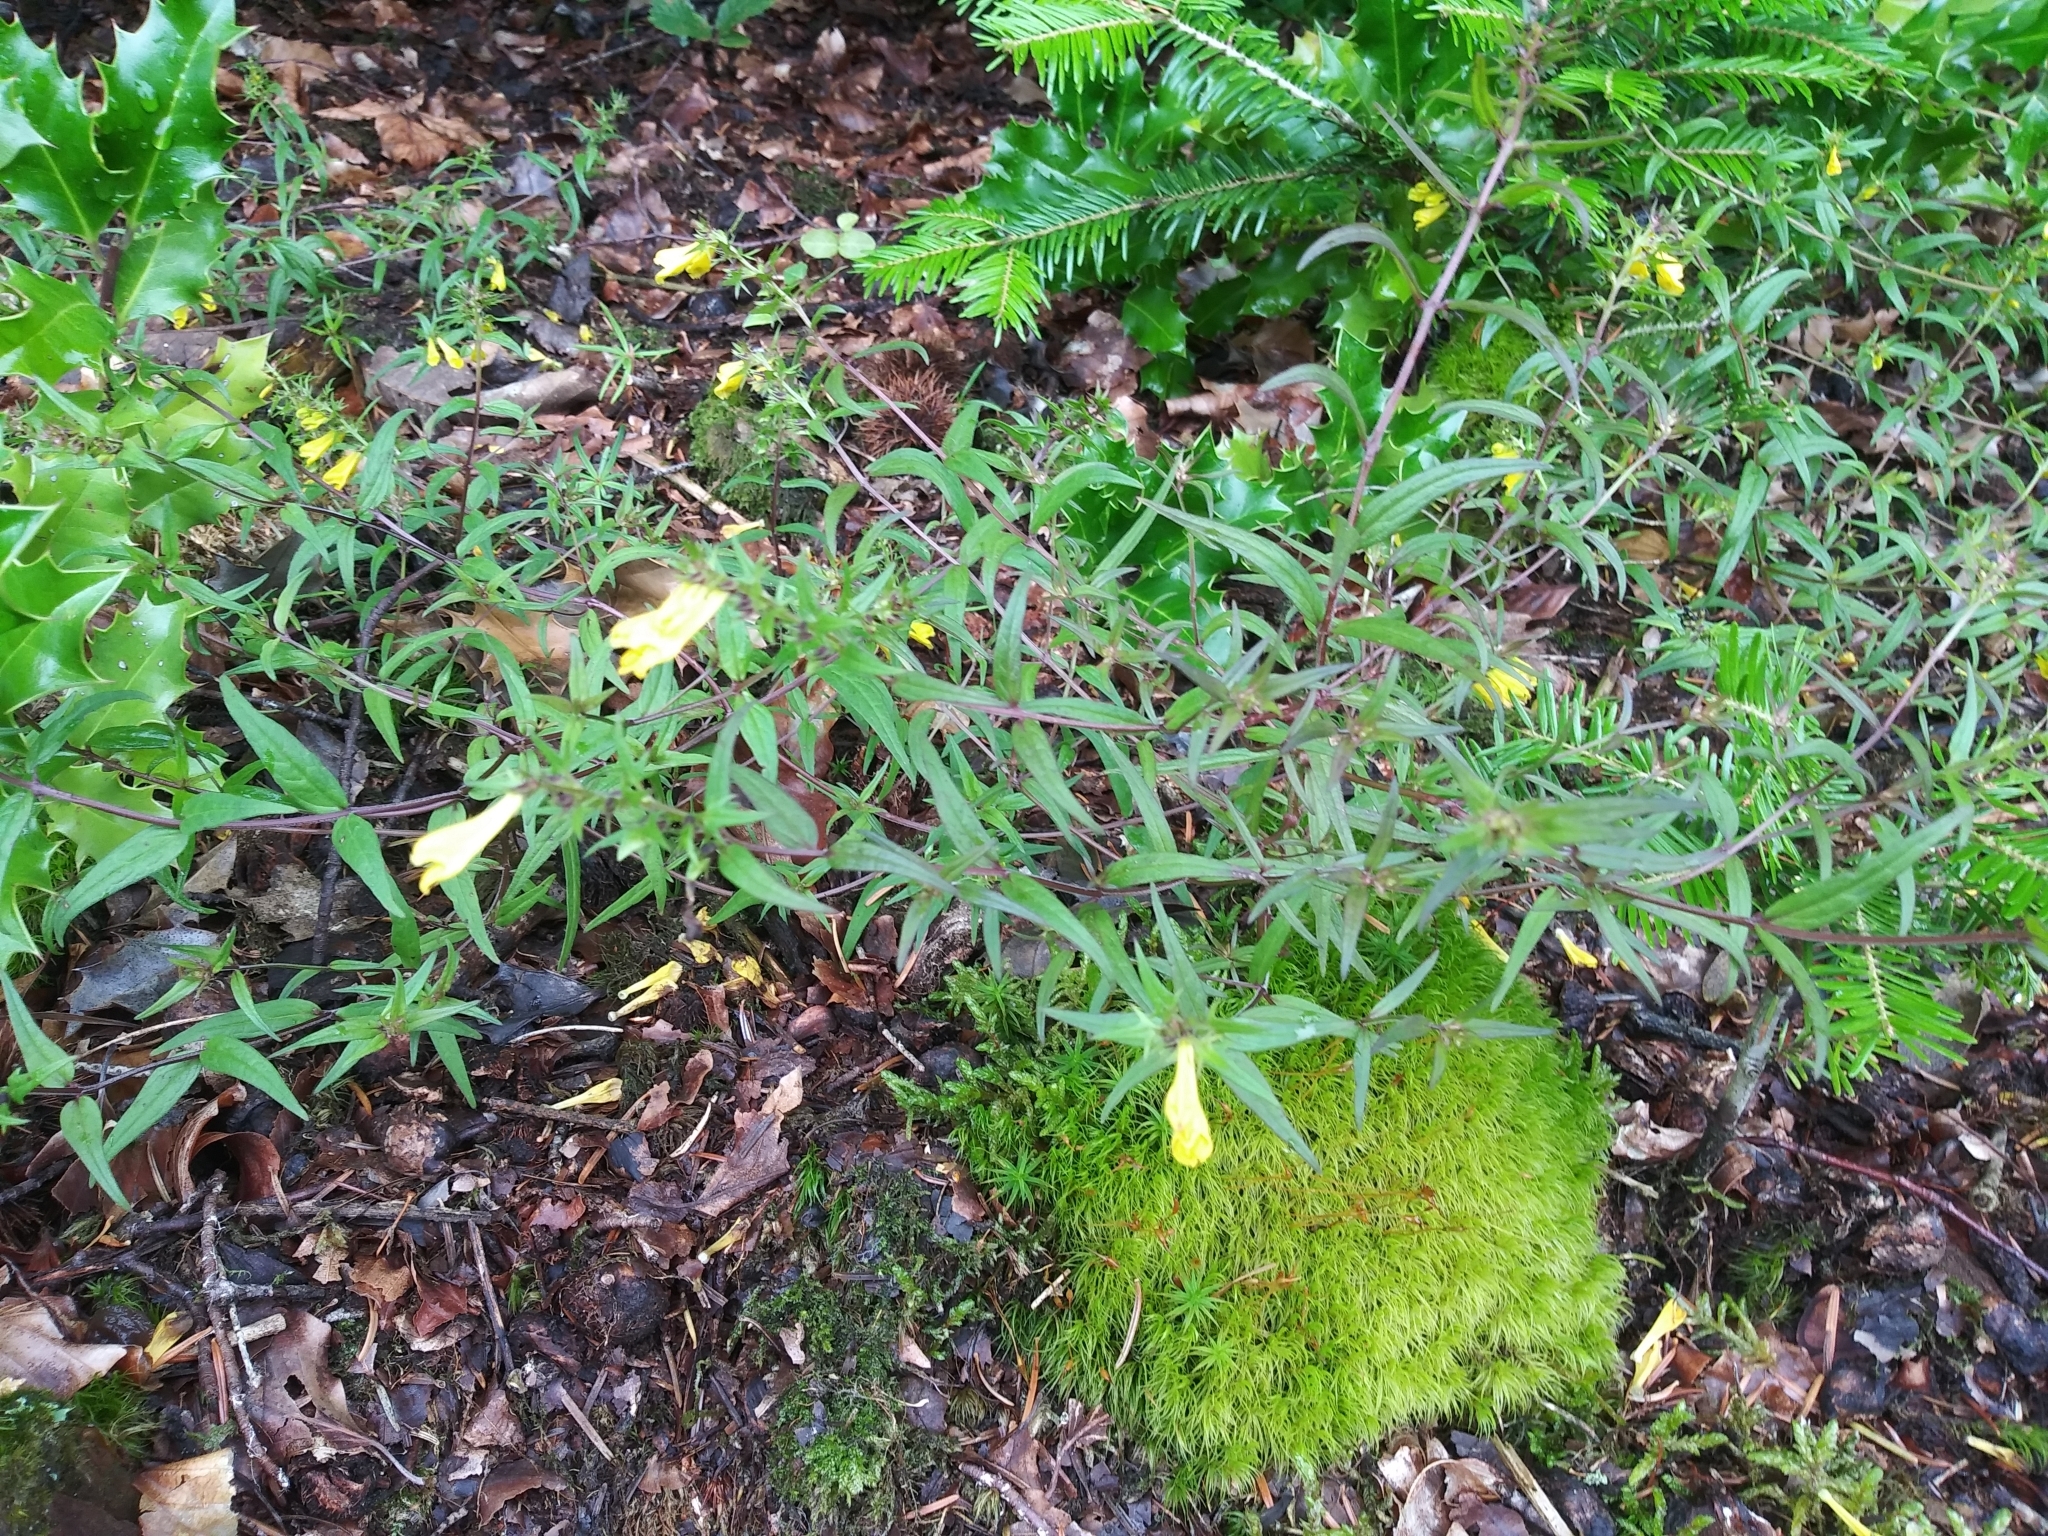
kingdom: Plantae
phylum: Tracheophyta
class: Magnoliopsida
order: Lamiales
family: Orobanchaceae
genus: Melampyrum
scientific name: Melampyrum pratense
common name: Common cow-wheat
